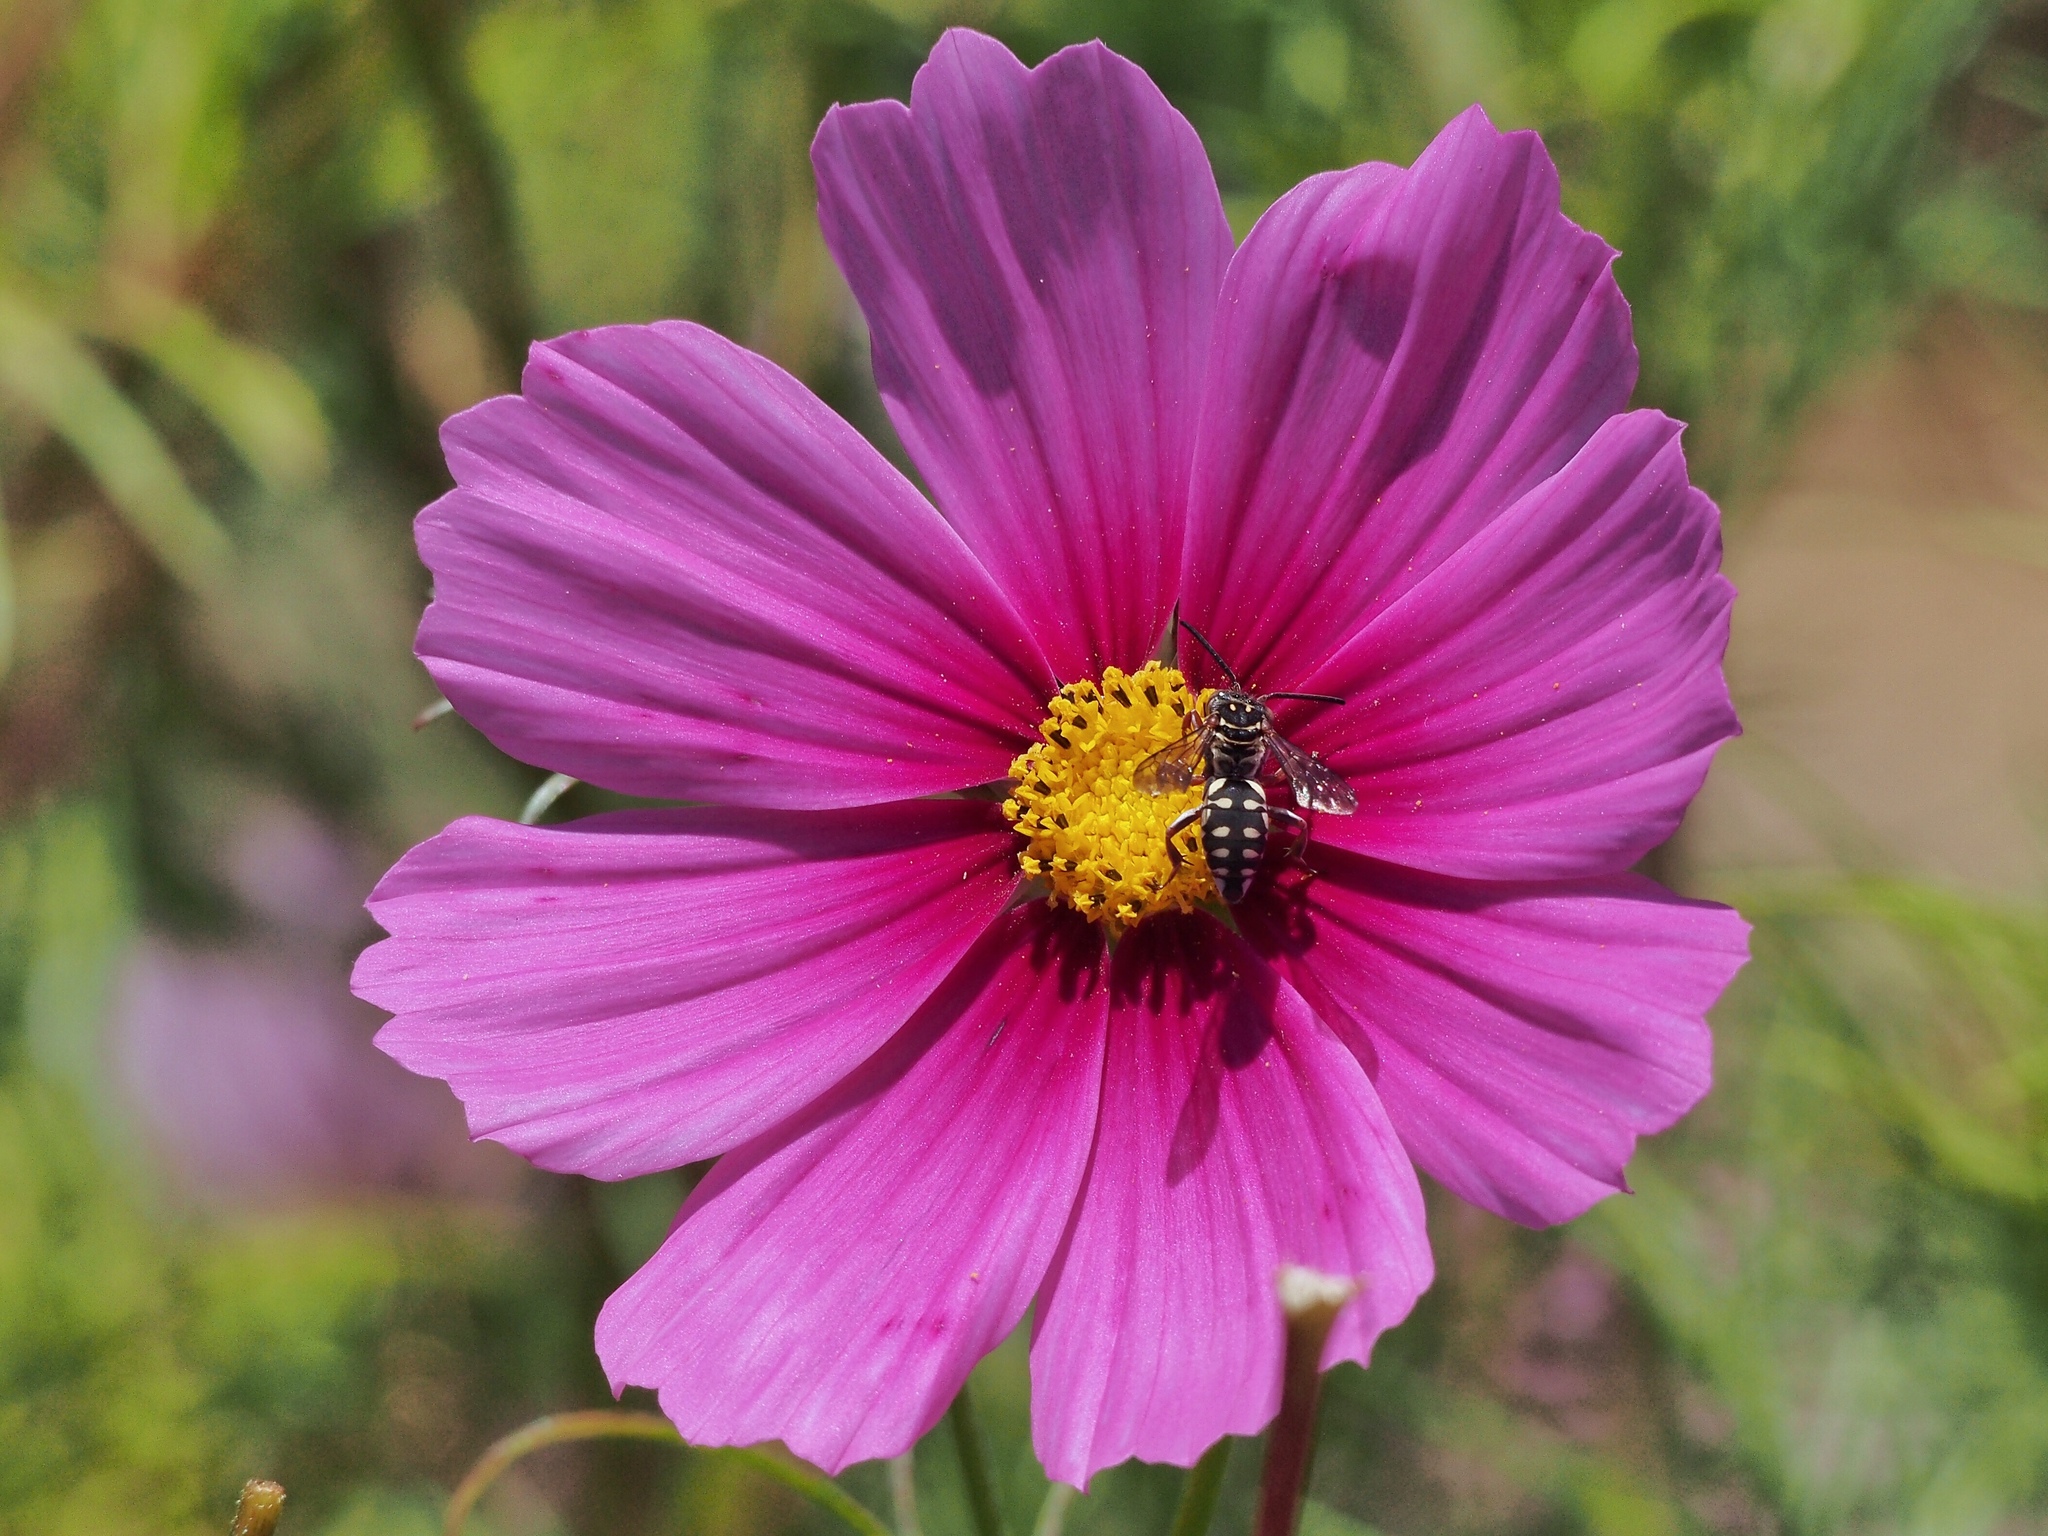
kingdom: Animalia
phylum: Arthropoda
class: Insecta
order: Hymenoptera
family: Apidae
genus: Triepeolus
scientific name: Triepeolus verbesinae
